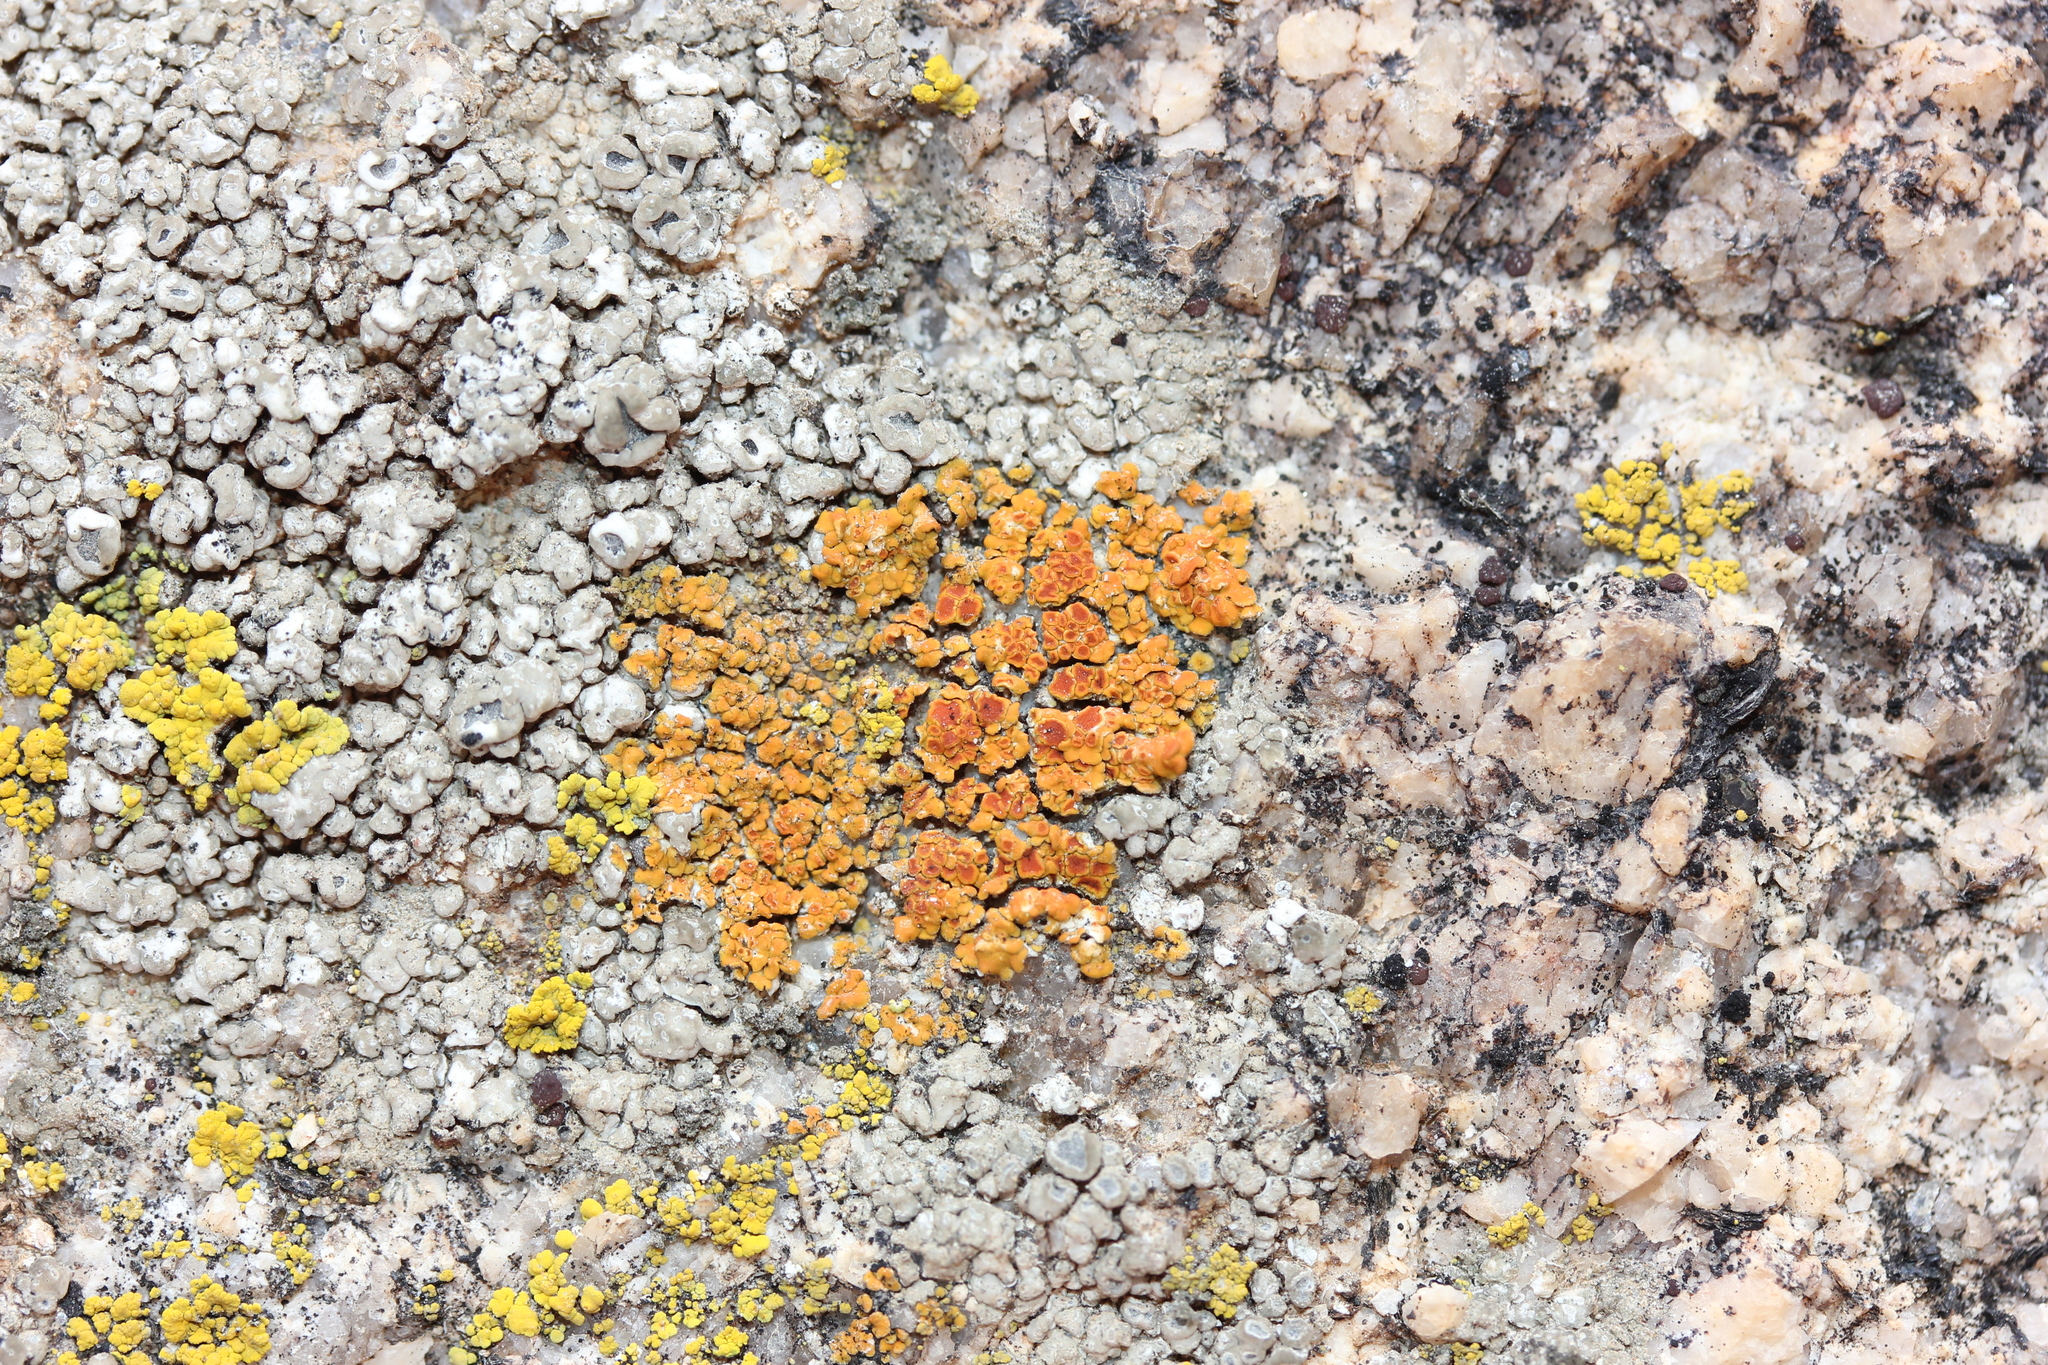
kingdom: Fungi
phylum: Ascomycota
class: Lecanoromycetes
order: Teloschistales
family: Teloschistaceae
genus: Squamulea
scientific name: Squamulea subsoluta
